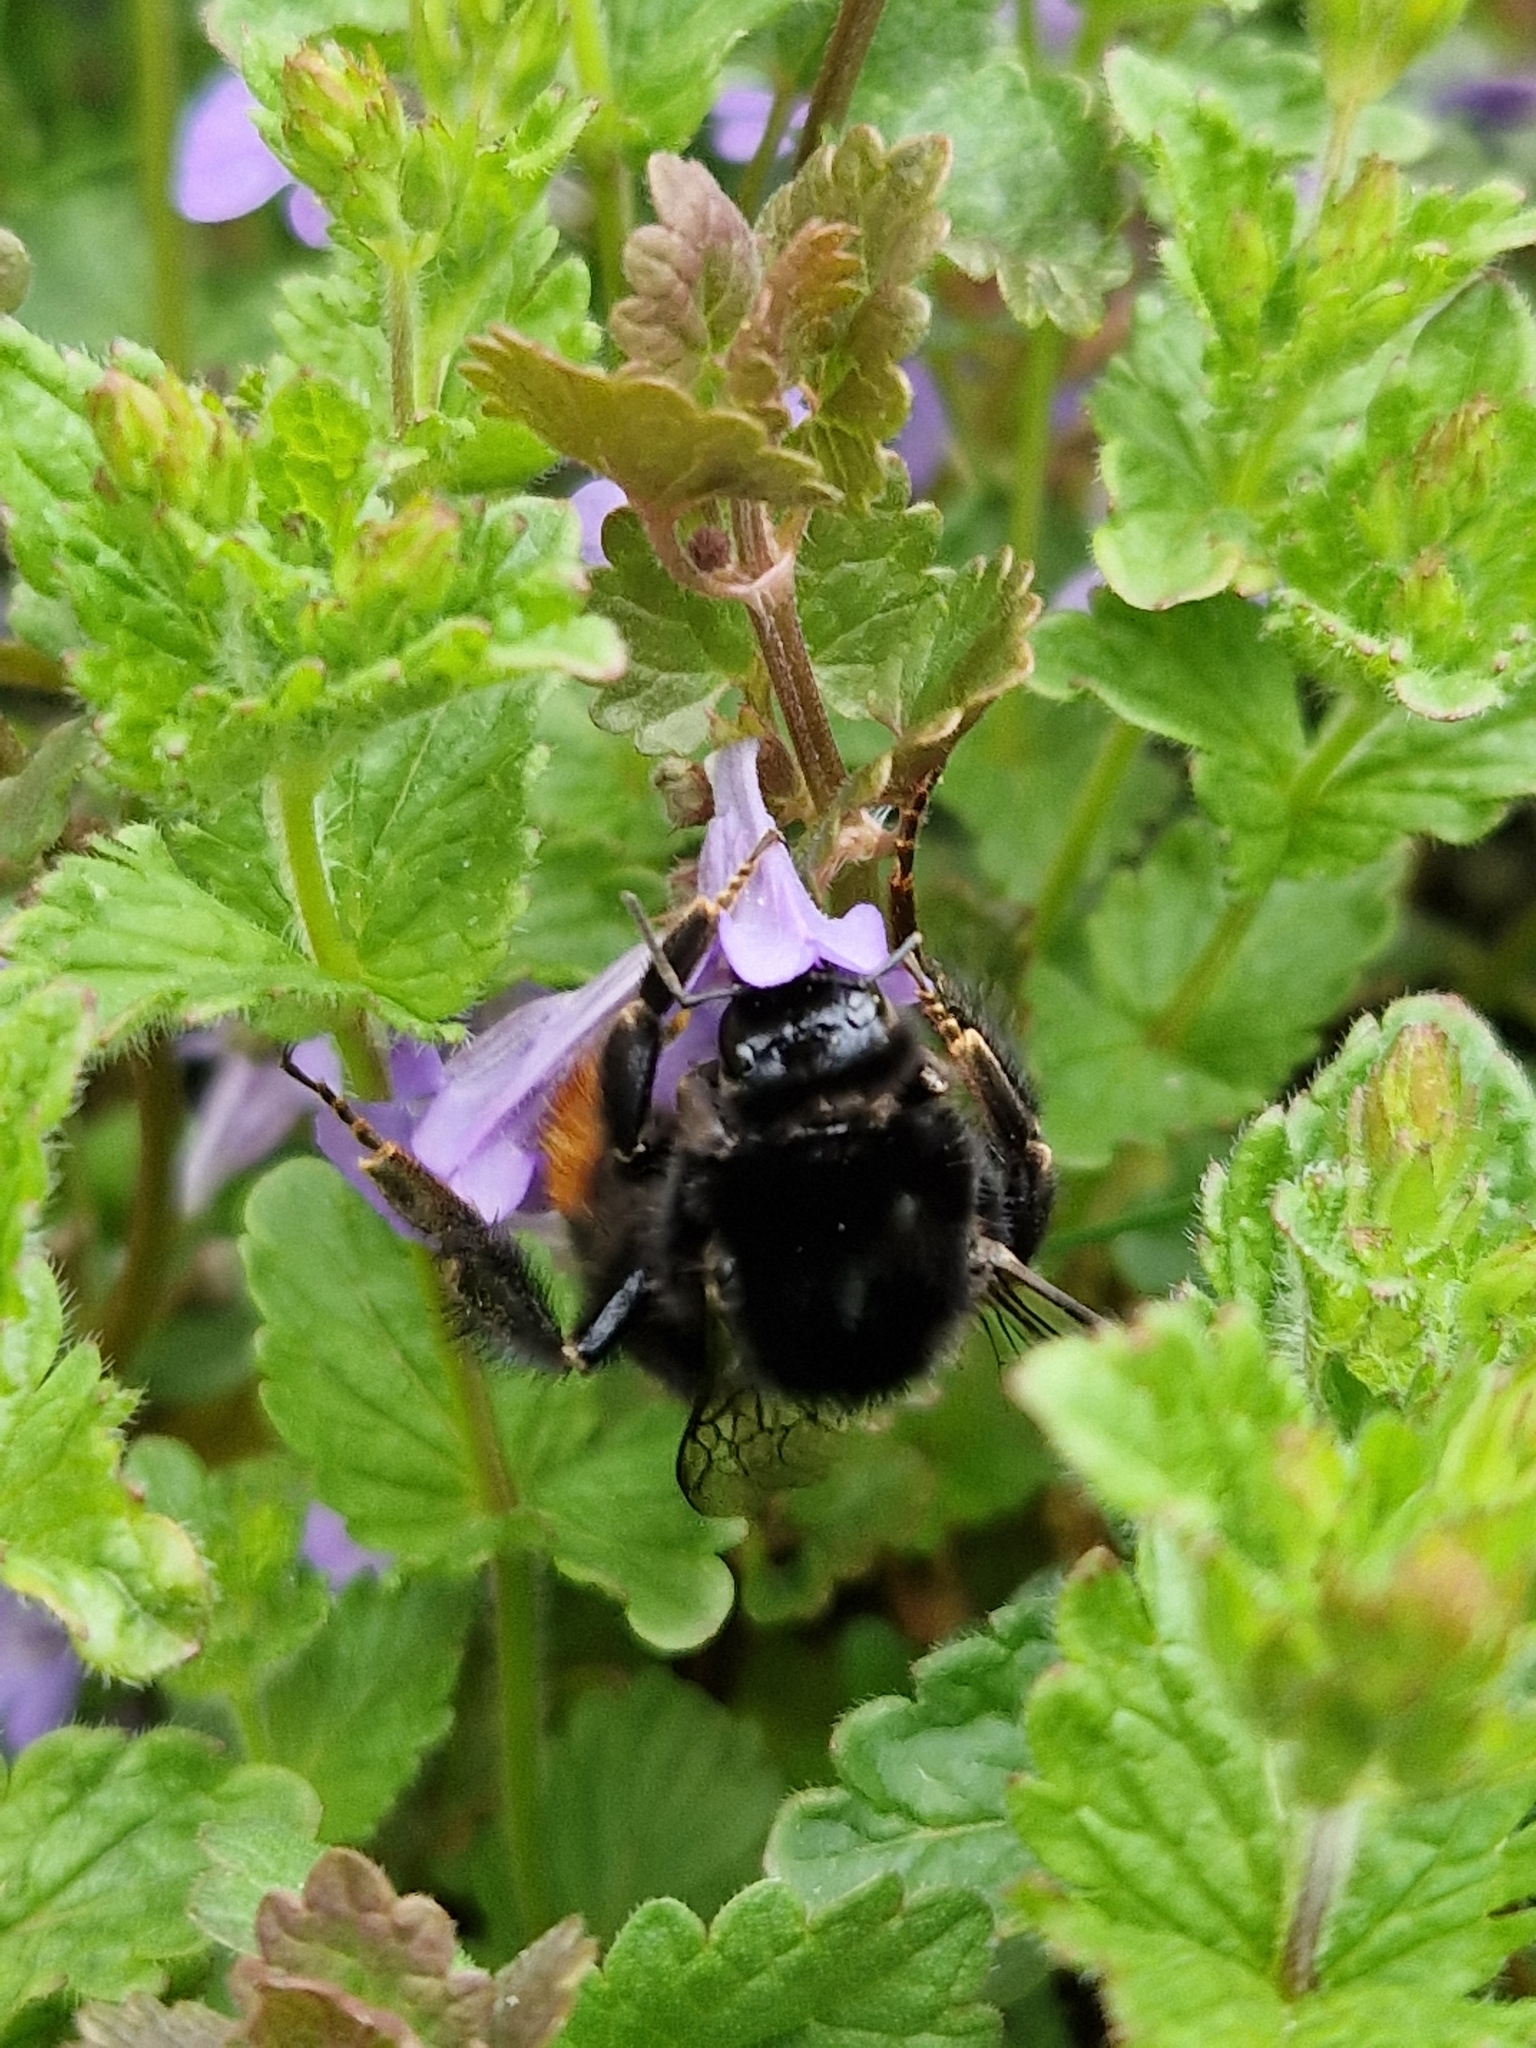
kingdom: Animalia
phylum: Arthropoda
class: Insecta
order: Hymenoptera
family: Apidae
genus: Bombus
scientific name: Bombus lapidarius
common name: Large red-tailed humble-bee
